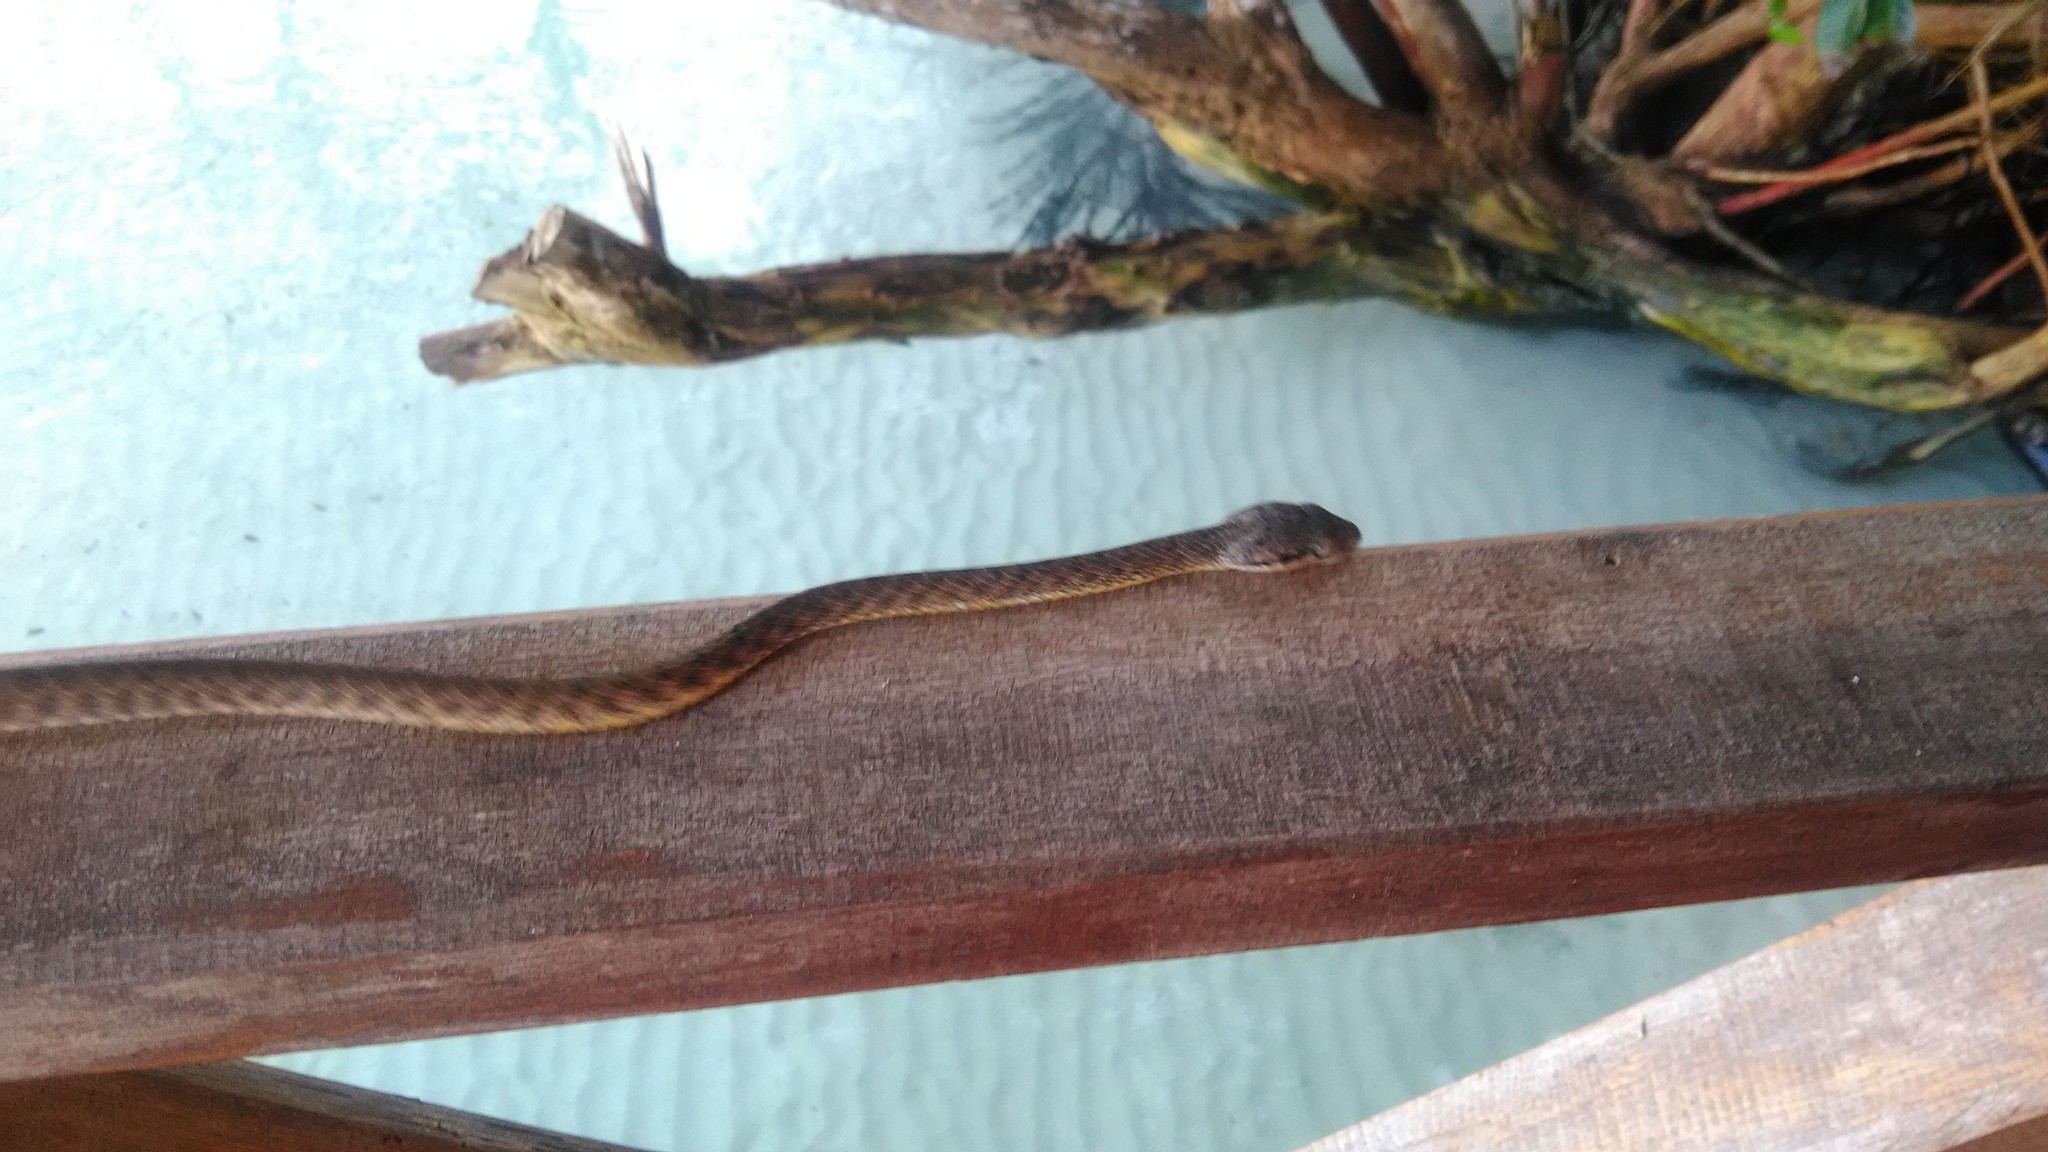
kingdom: Animalia
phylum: Chordata
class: Squamata
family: Colubridae
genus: Boiga
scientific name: Boiga irregularis
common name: Brown tree snake
